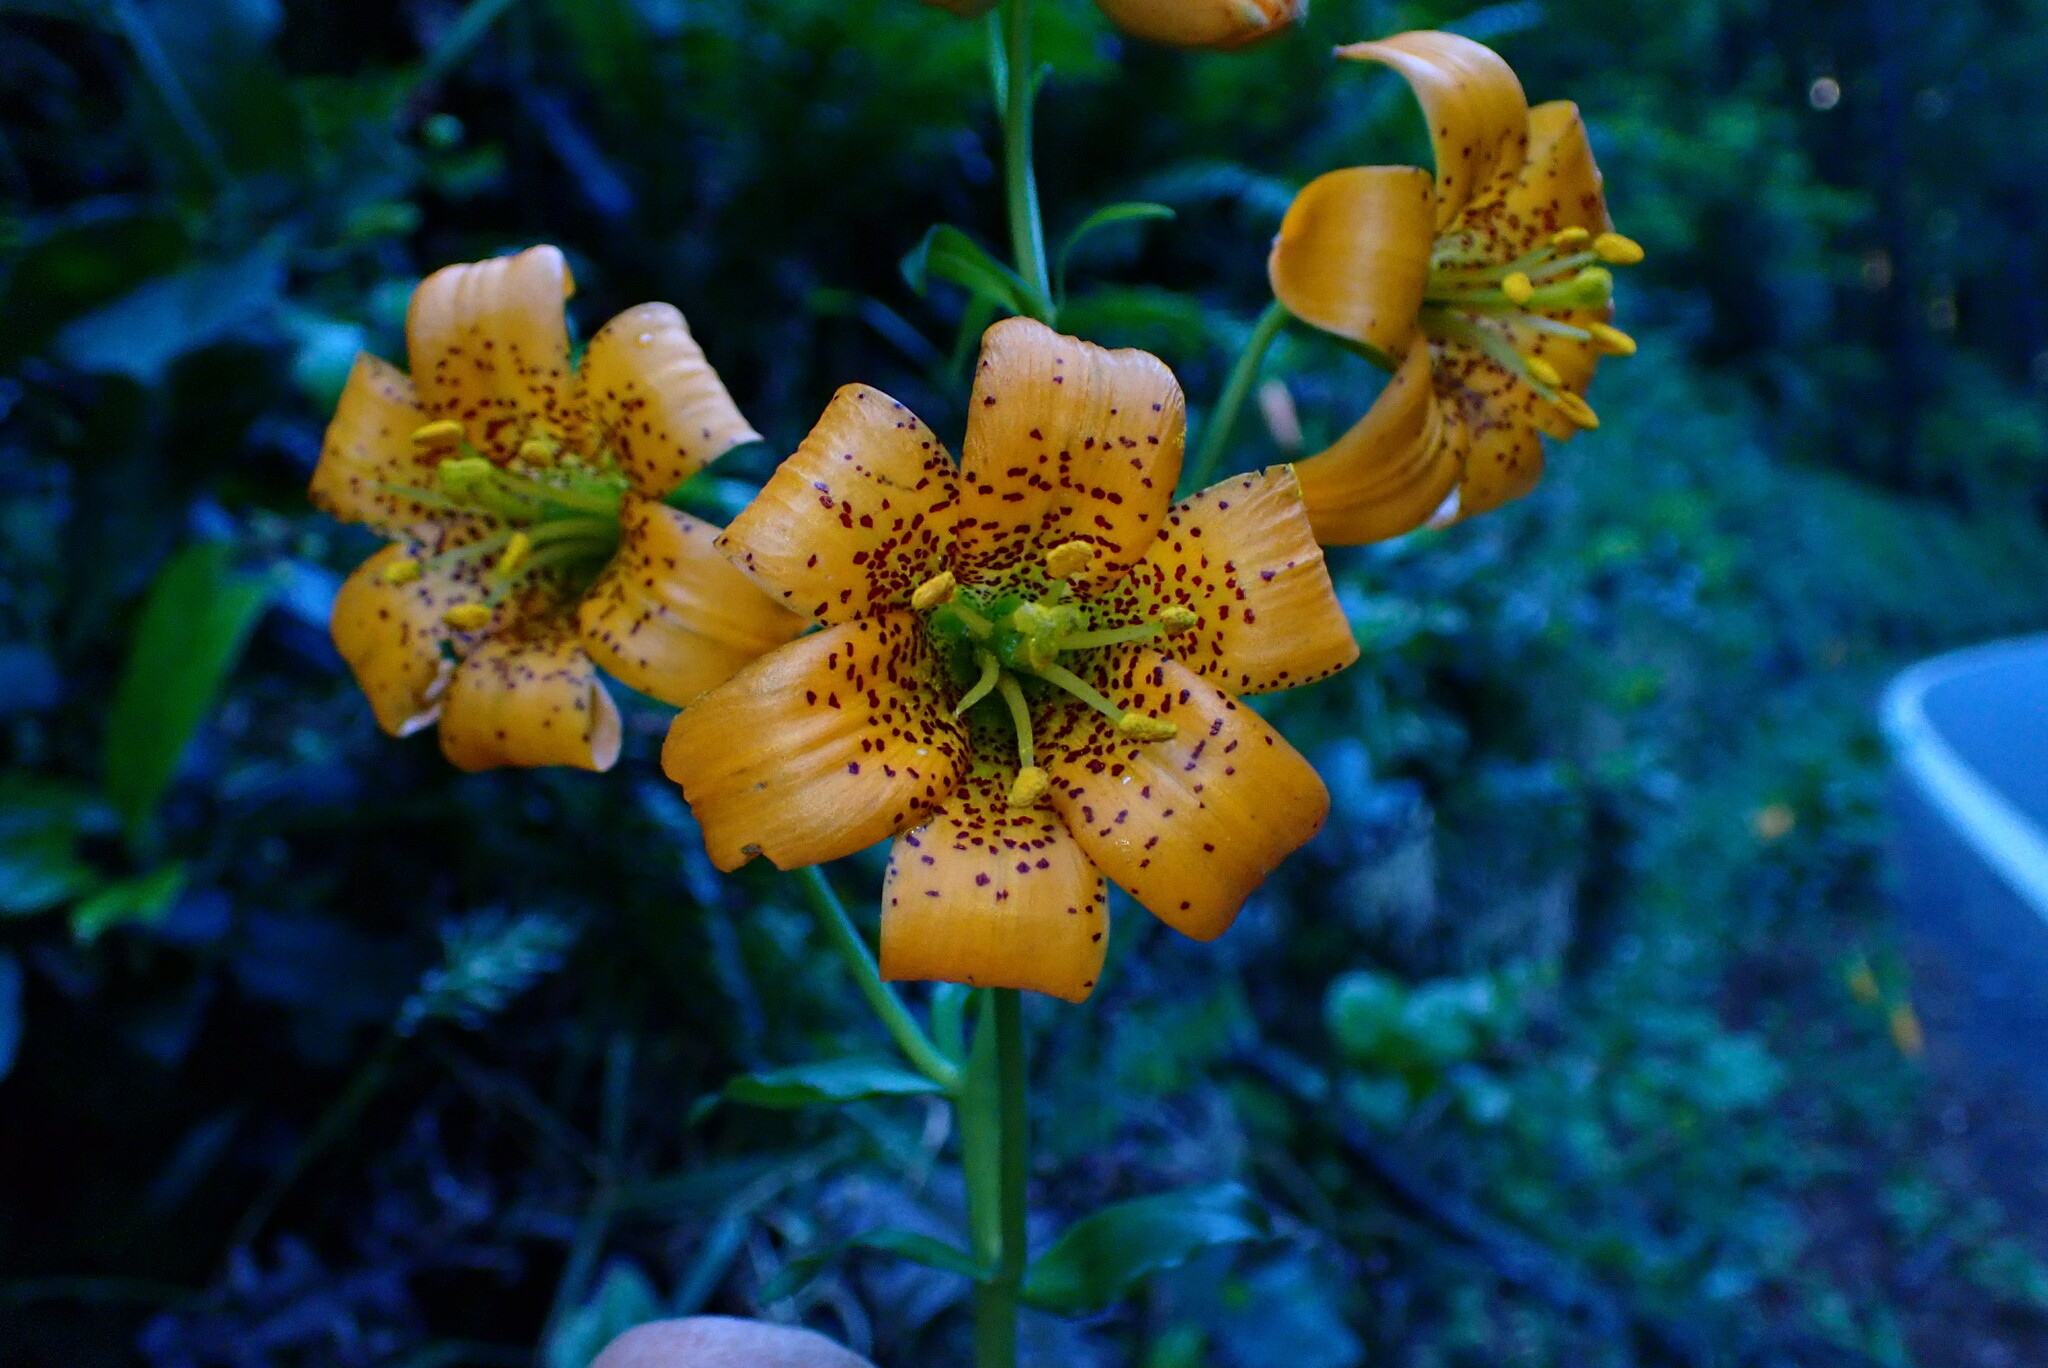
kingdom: Plantae
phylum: Tracheophyta
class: Liliopsida
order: Liliales
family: Liliaceae
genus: Lilium
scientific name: Lilium columbianum
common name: Columbia lily
